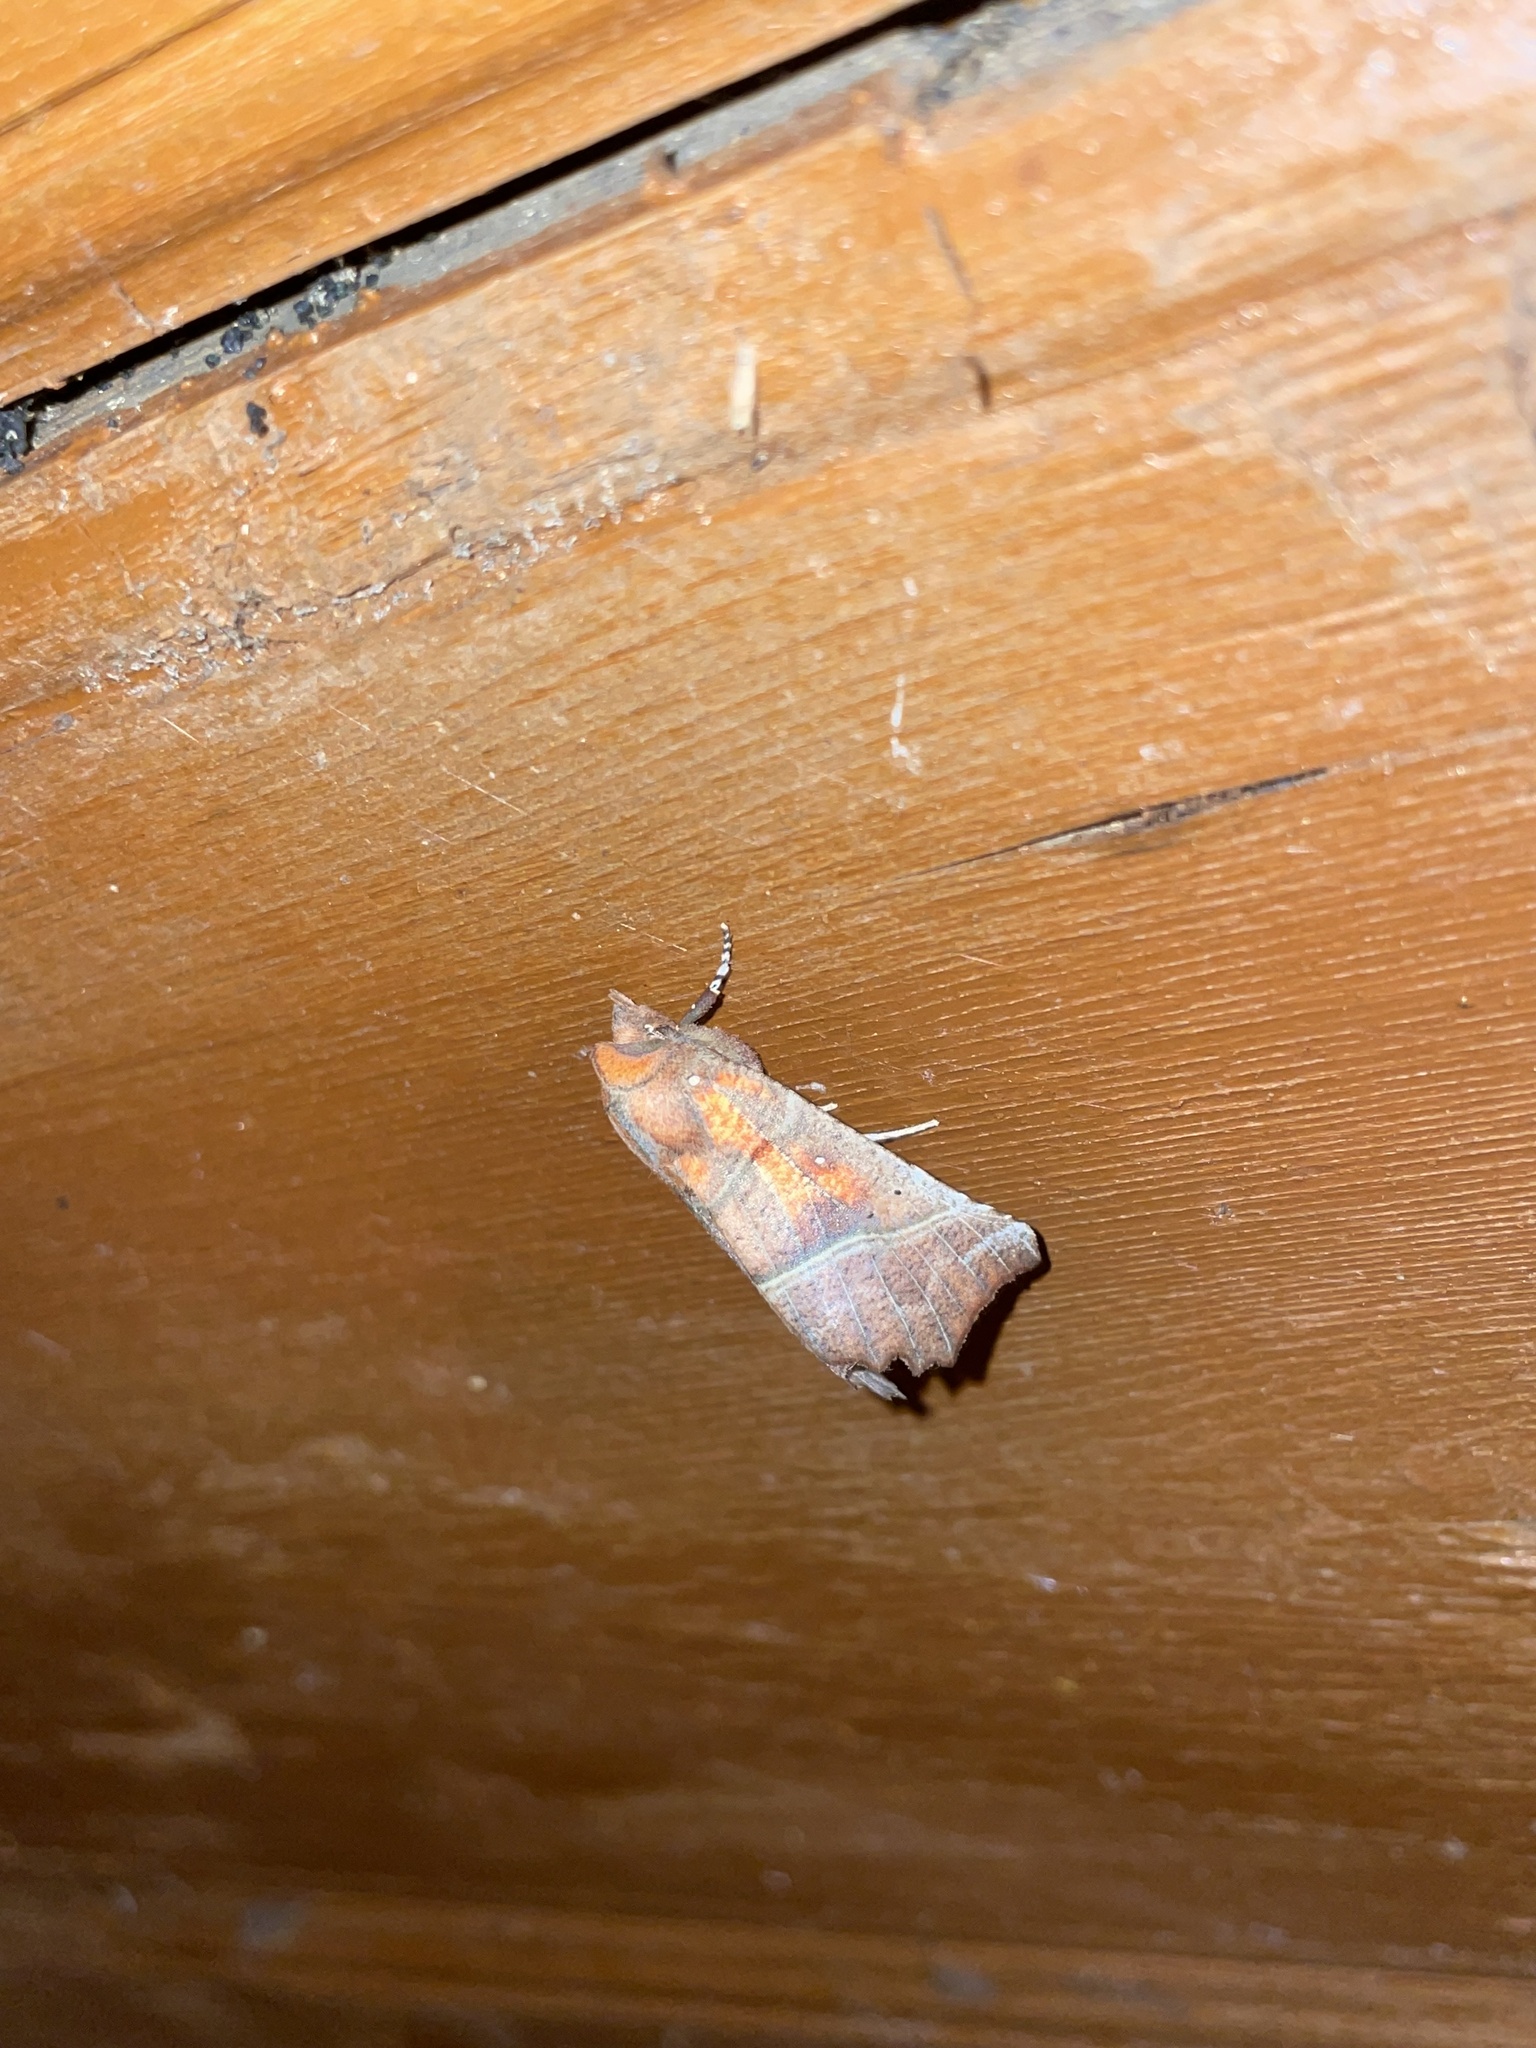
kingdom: Animalia
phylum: Arthropoda
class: Insecta
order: Lepidoptera
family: Erebidae
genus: Scoliopteryx
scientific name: Scoliopteryx libatrix
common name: Herald
